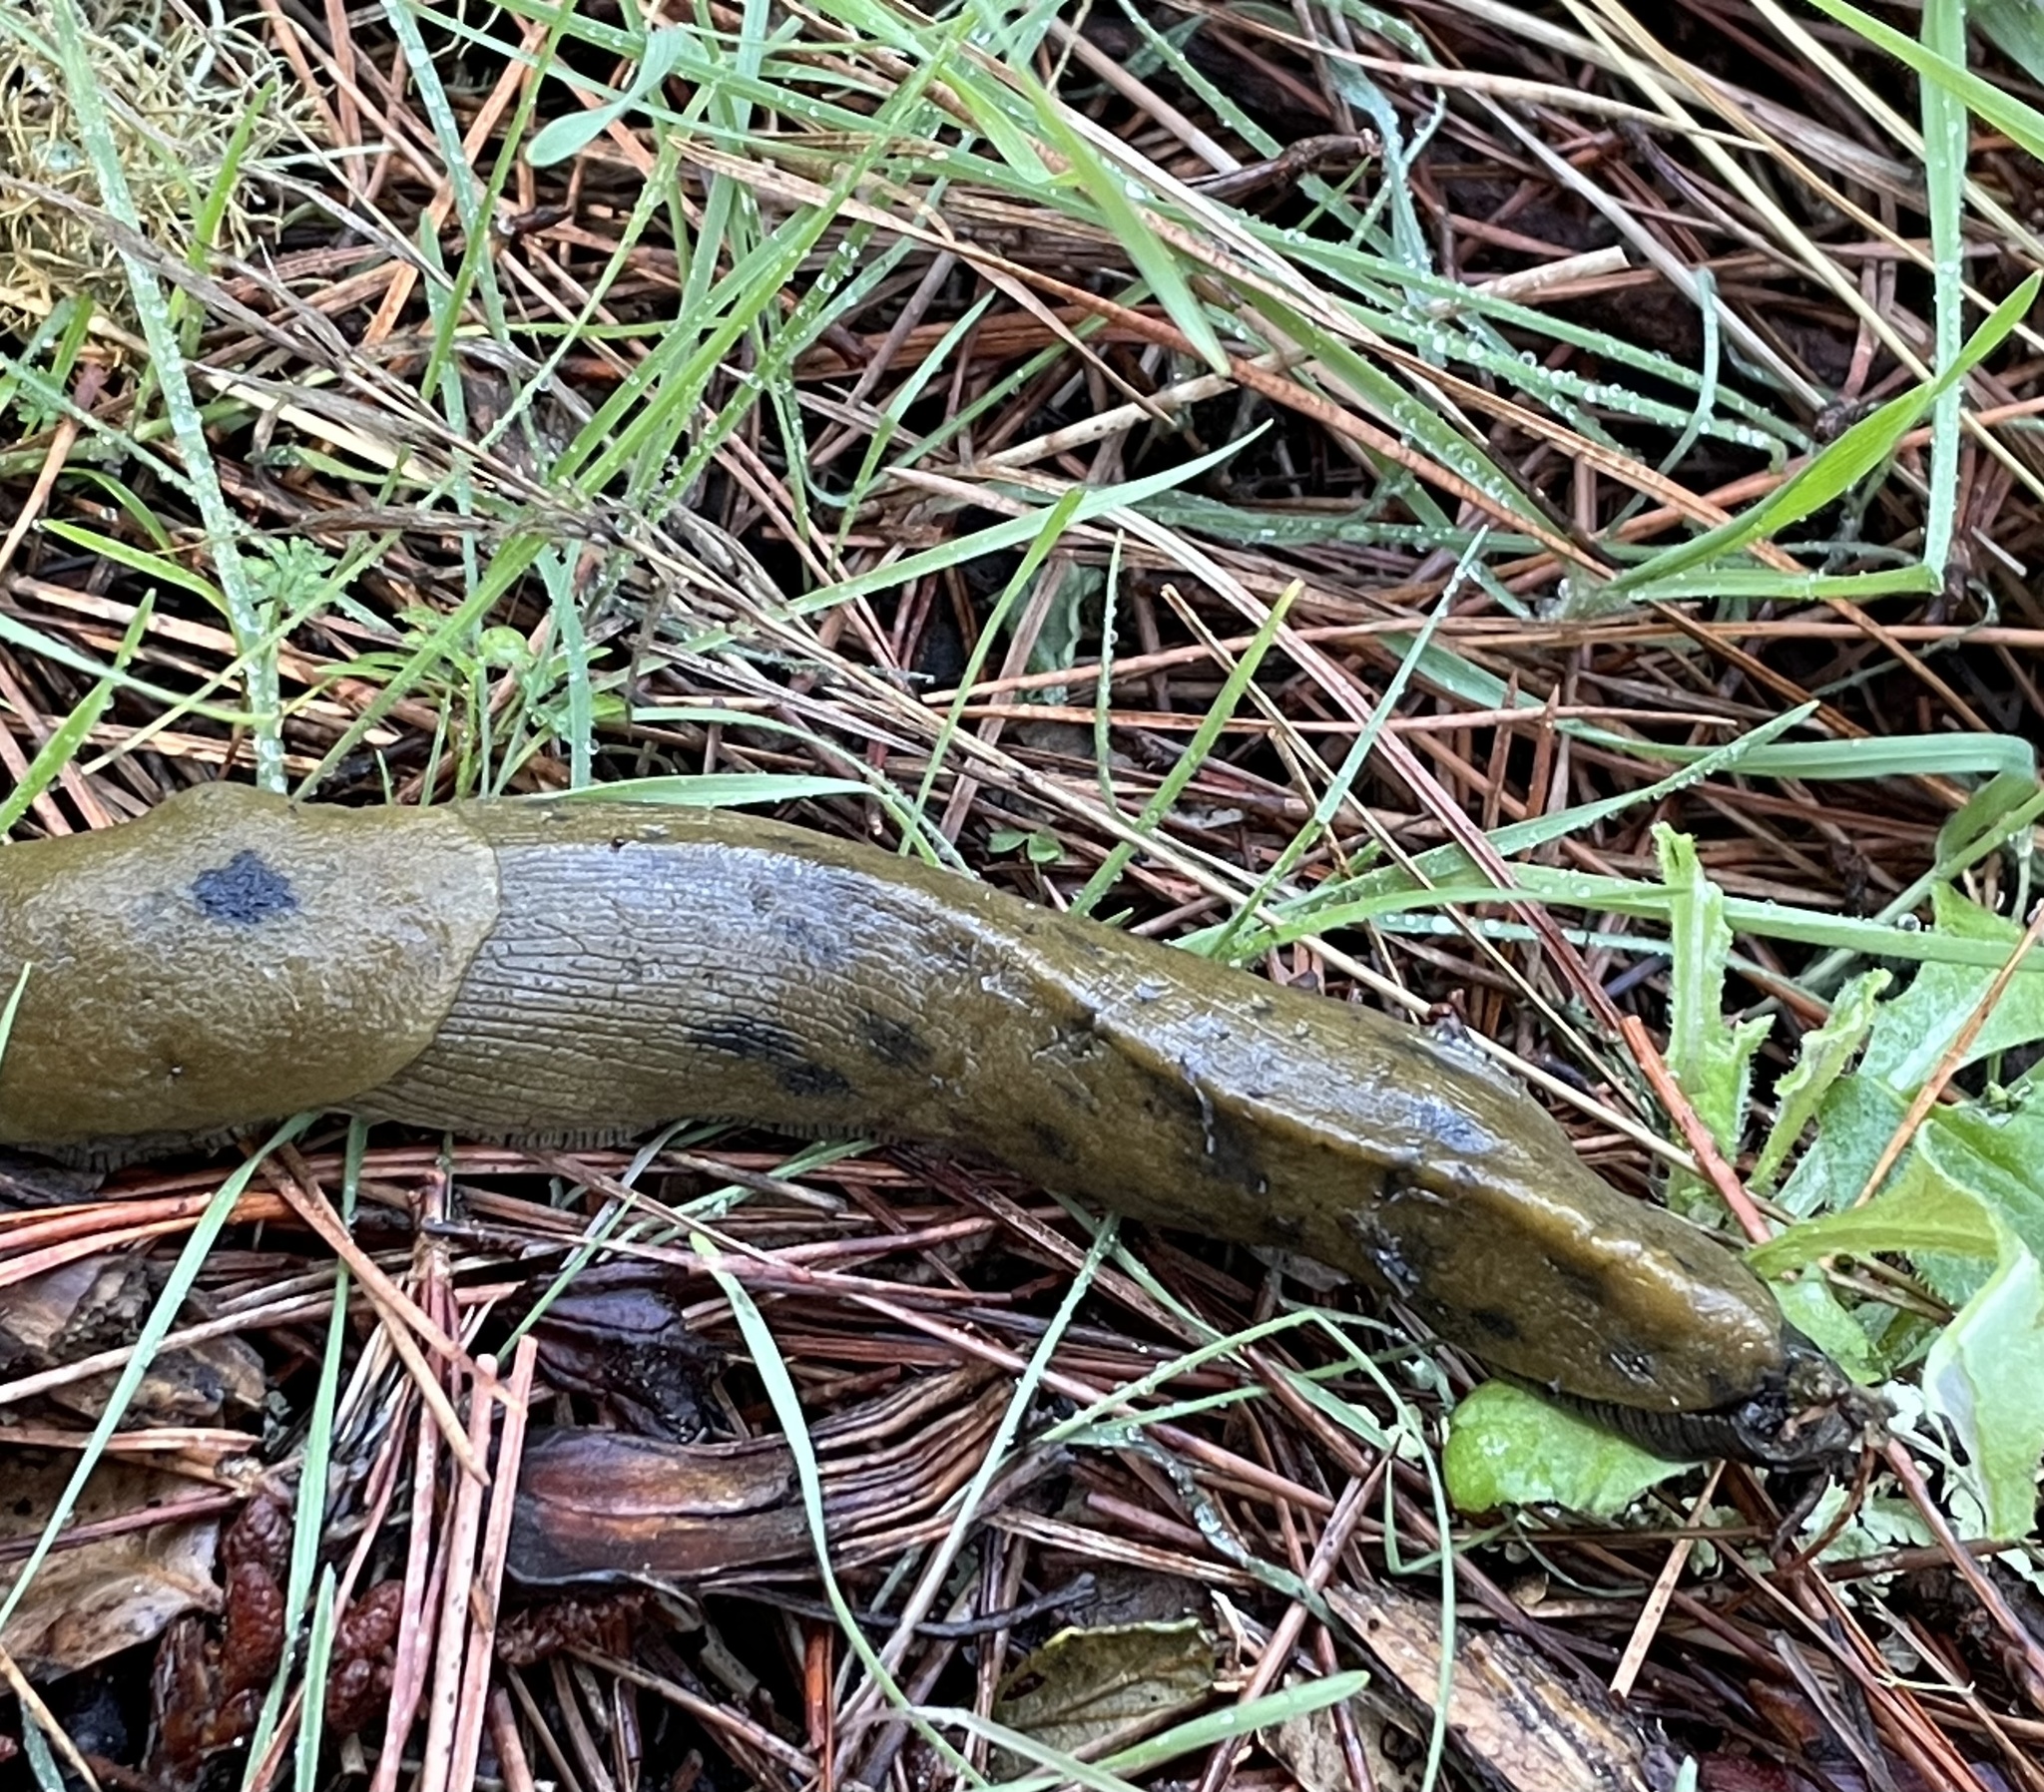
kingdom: Animalia
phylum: Mollusca
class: Gastropoda
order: Stylommatophora
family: Ariolimacidae
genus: Ariolimax
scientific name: Ariolimax buttoni
